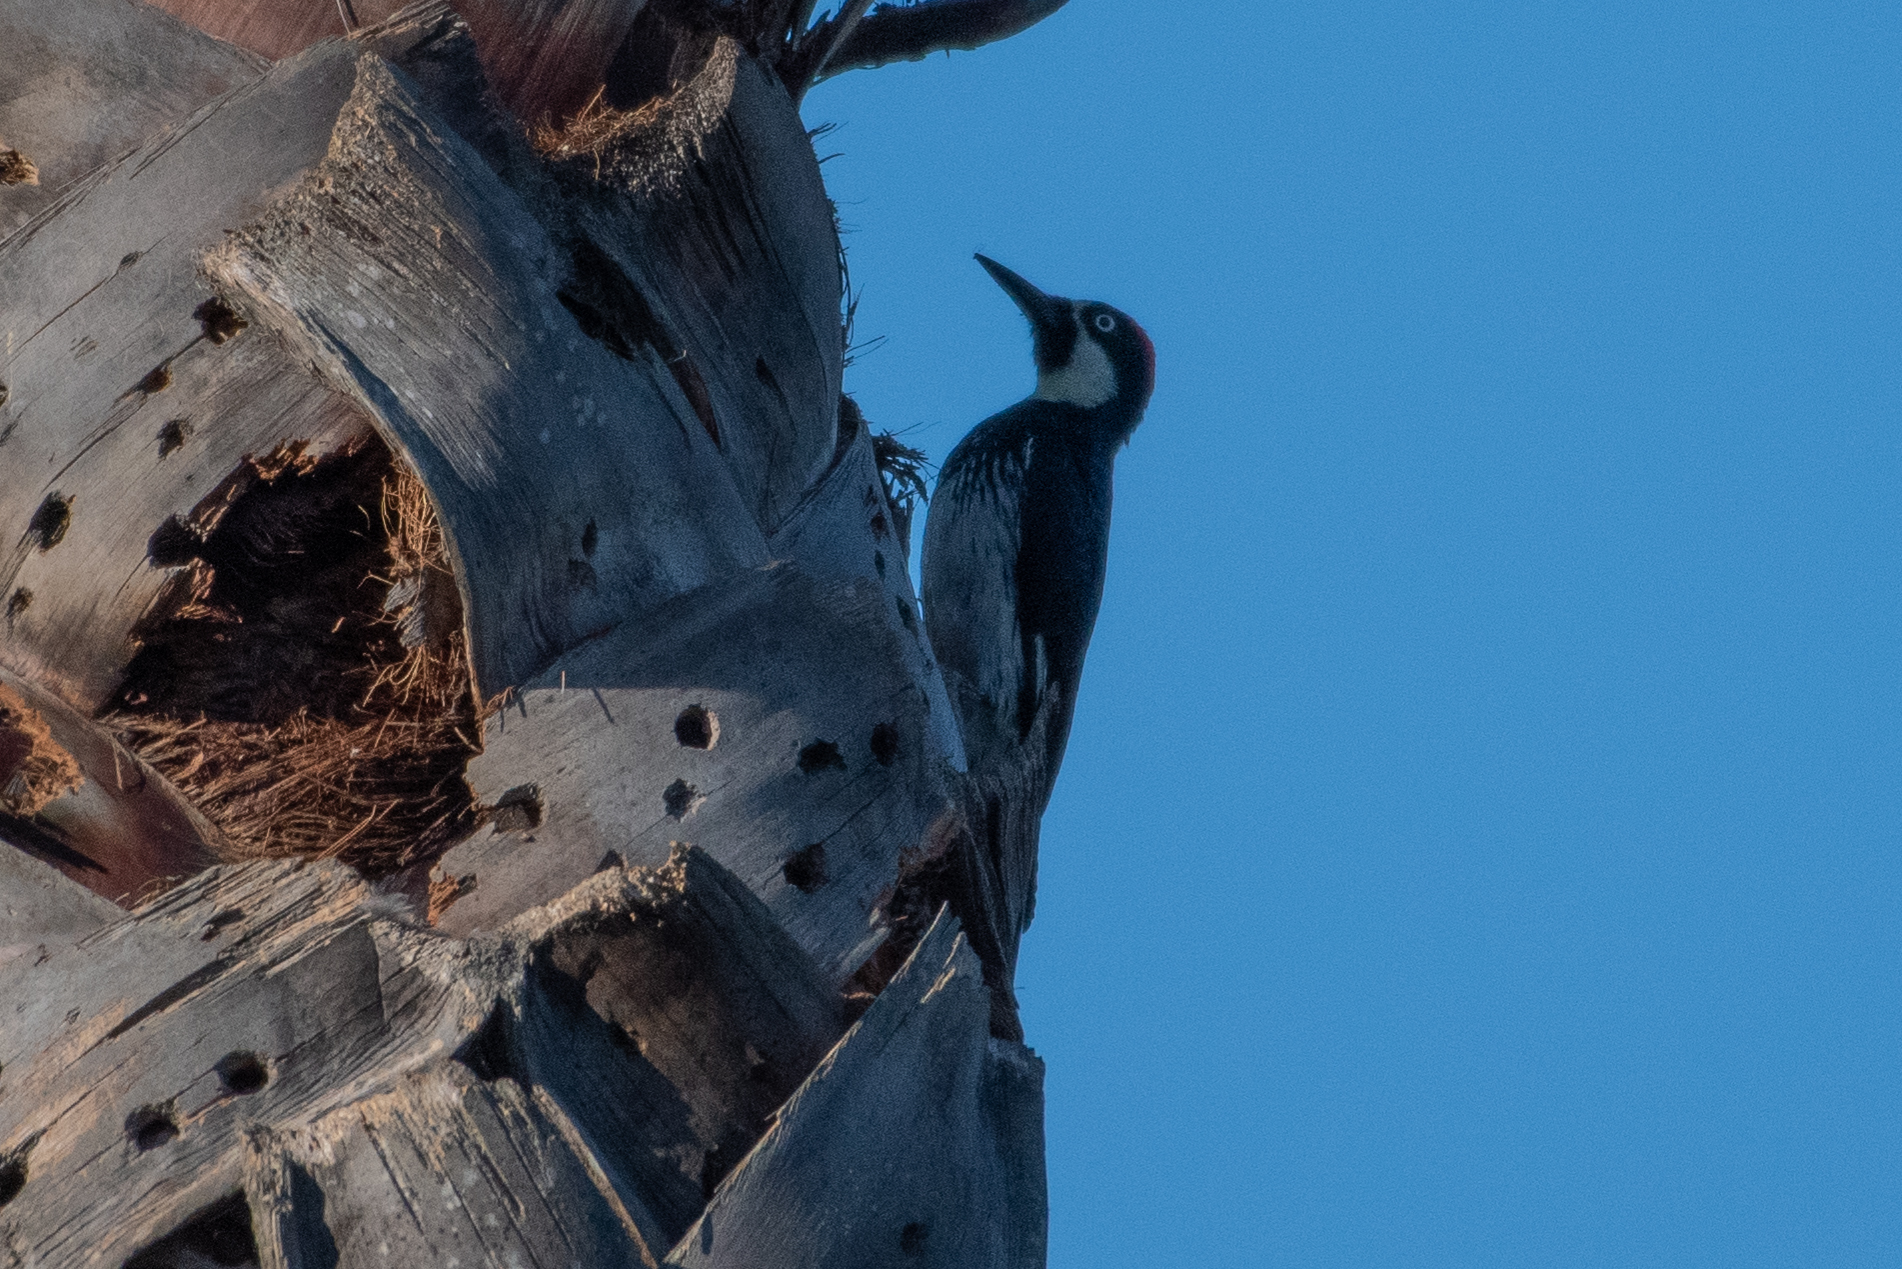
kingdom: Animalia
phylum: Chordata
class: Aves
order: Piciformes
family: Picidae
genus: Melanerpes
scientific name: Melanerpes formicivorus
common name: Acorn woodpecker
